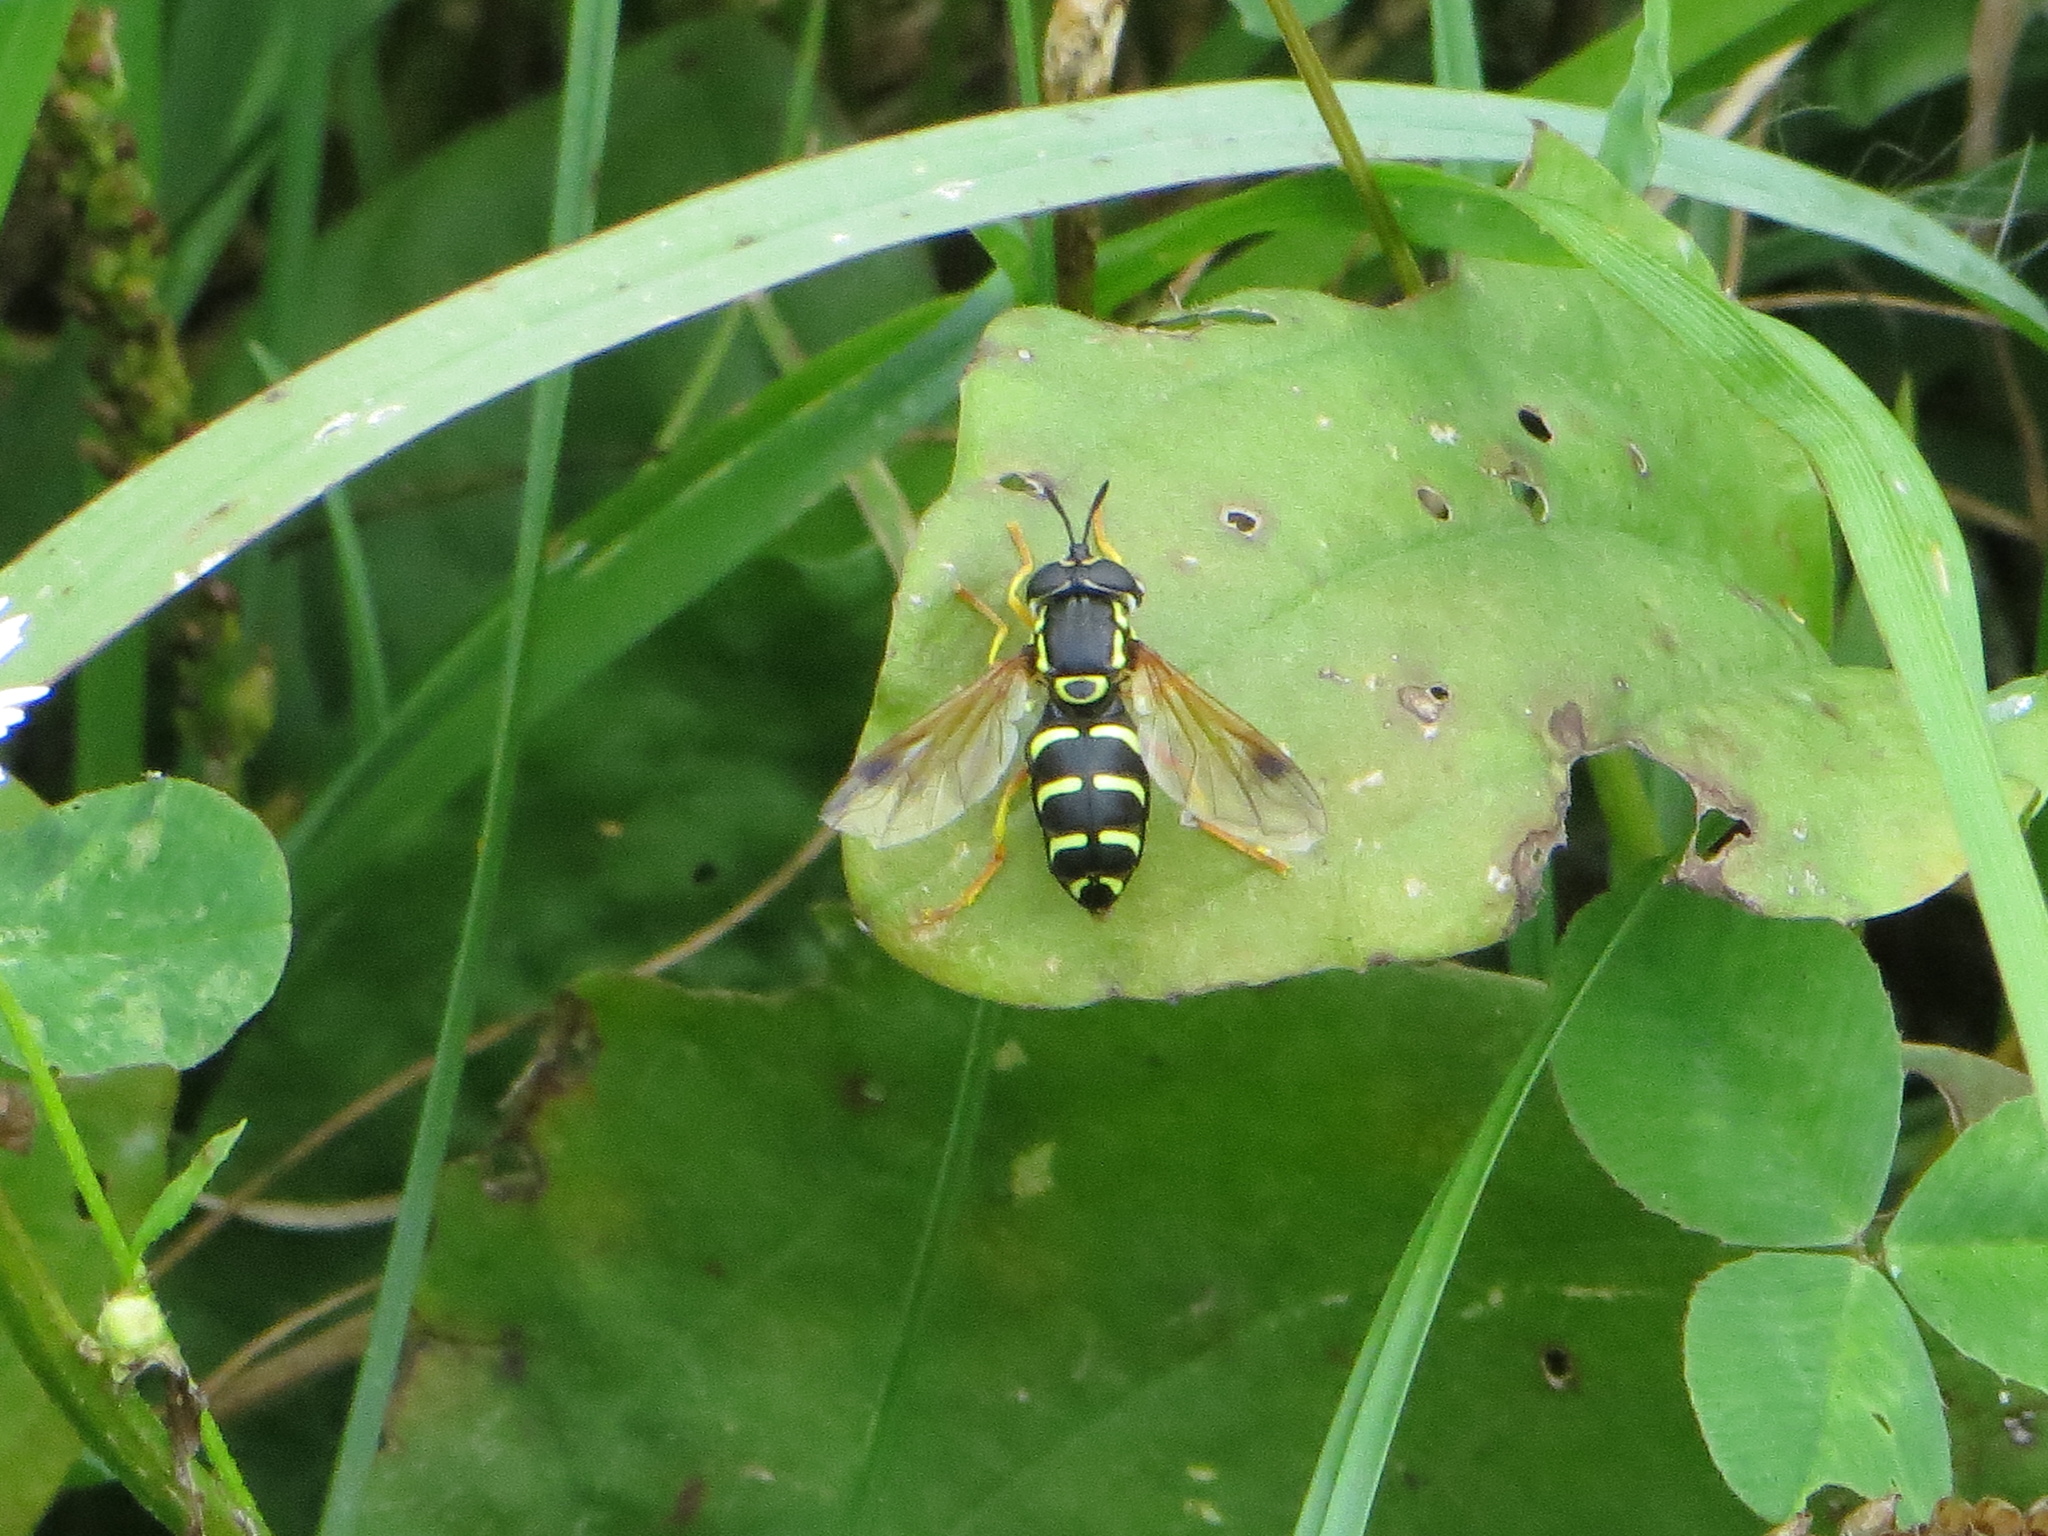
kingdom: Animalia
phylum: Arthropoda
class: Insecta
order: Diptera
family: Syrphidae
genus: Chrysotoxum
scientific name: Chrysotoxum festivum
